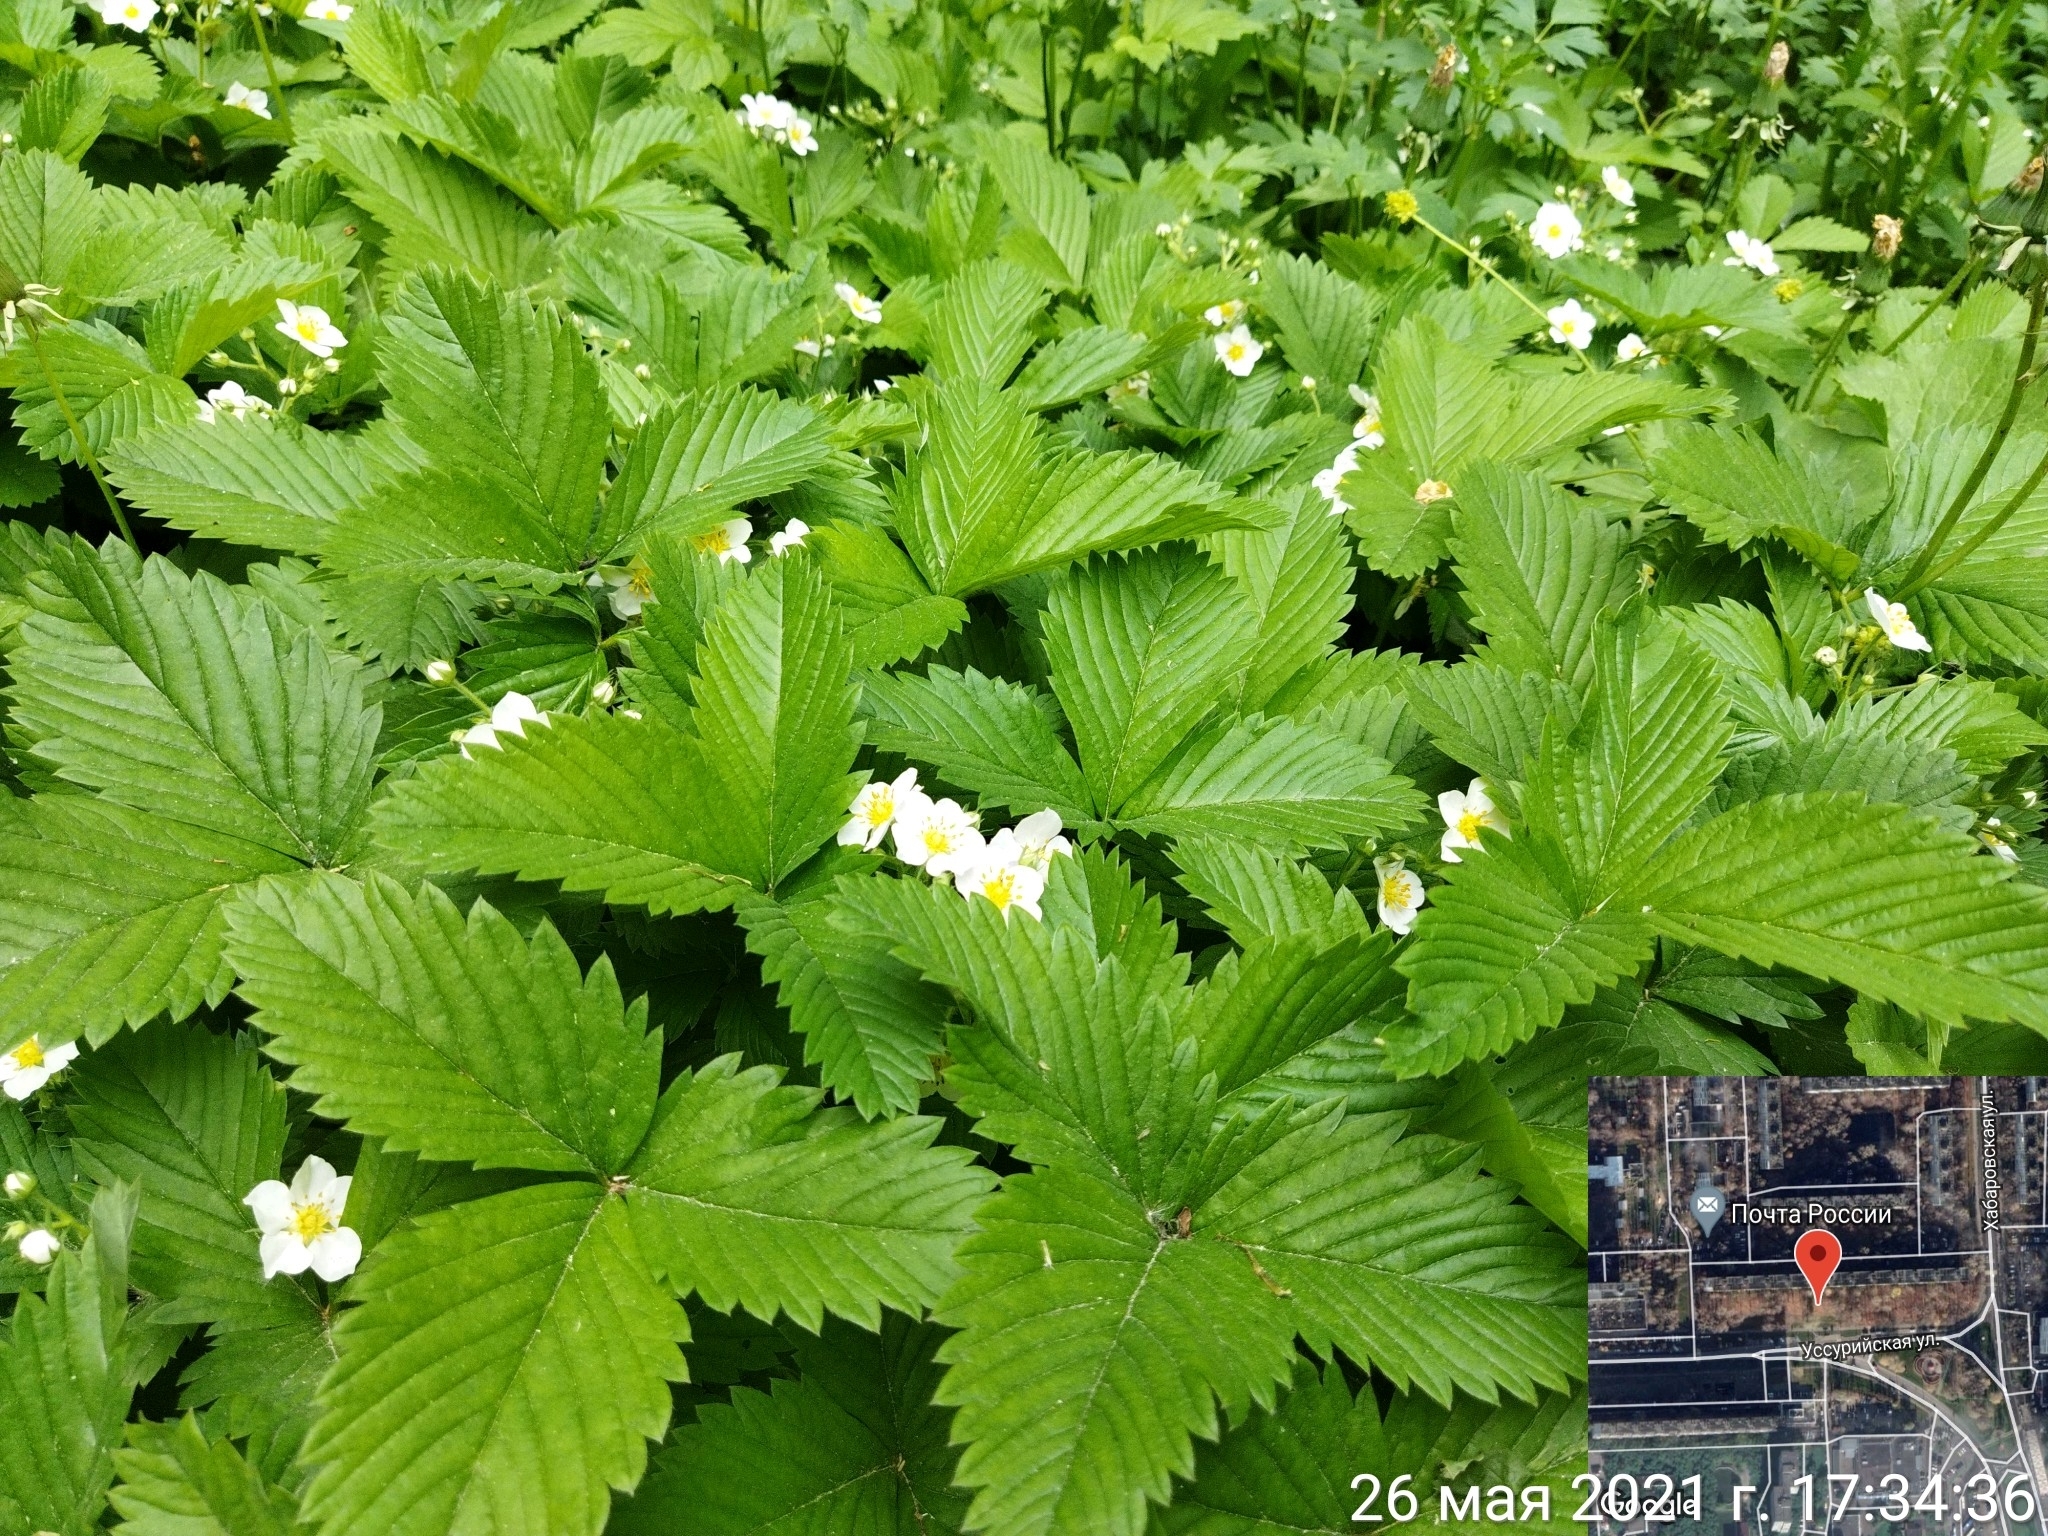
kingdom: Plantae
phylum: Tracheophyta
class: Magnoliopsida
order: Rosales
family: Rosaceae
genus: Fragaria
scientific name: Fragaria moschata
